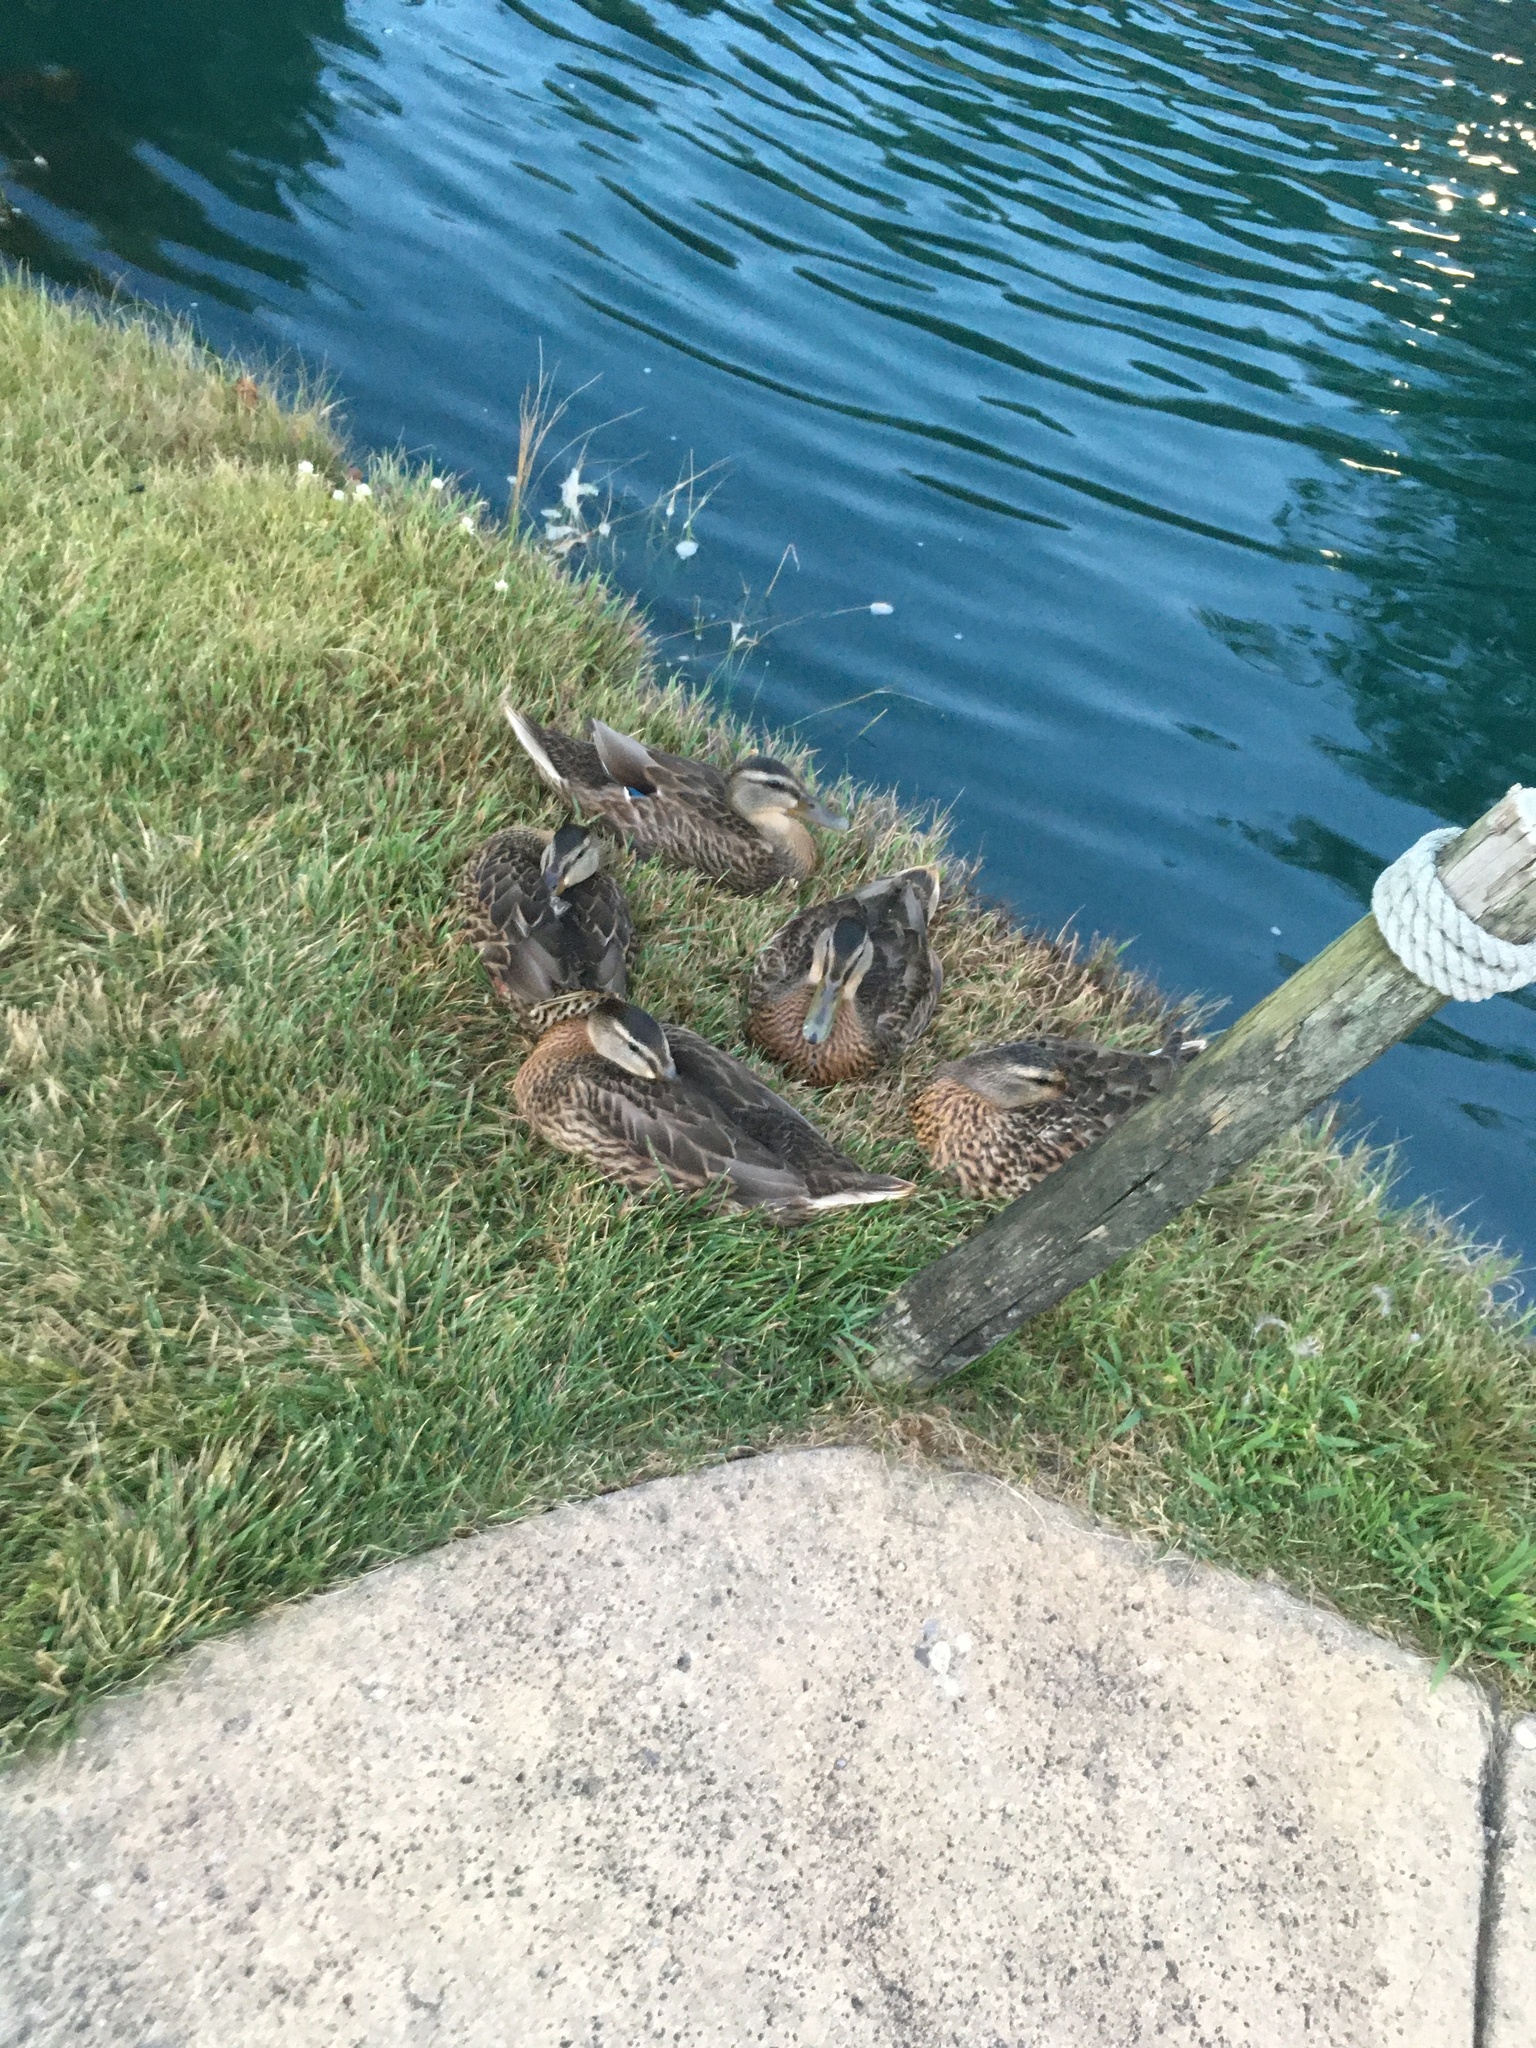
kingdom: Animalia
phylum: Chordata
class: Aves
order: Anseriformes
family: Anatidae
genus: Anas
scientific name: Anas platyrhynchos
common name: Mallard
